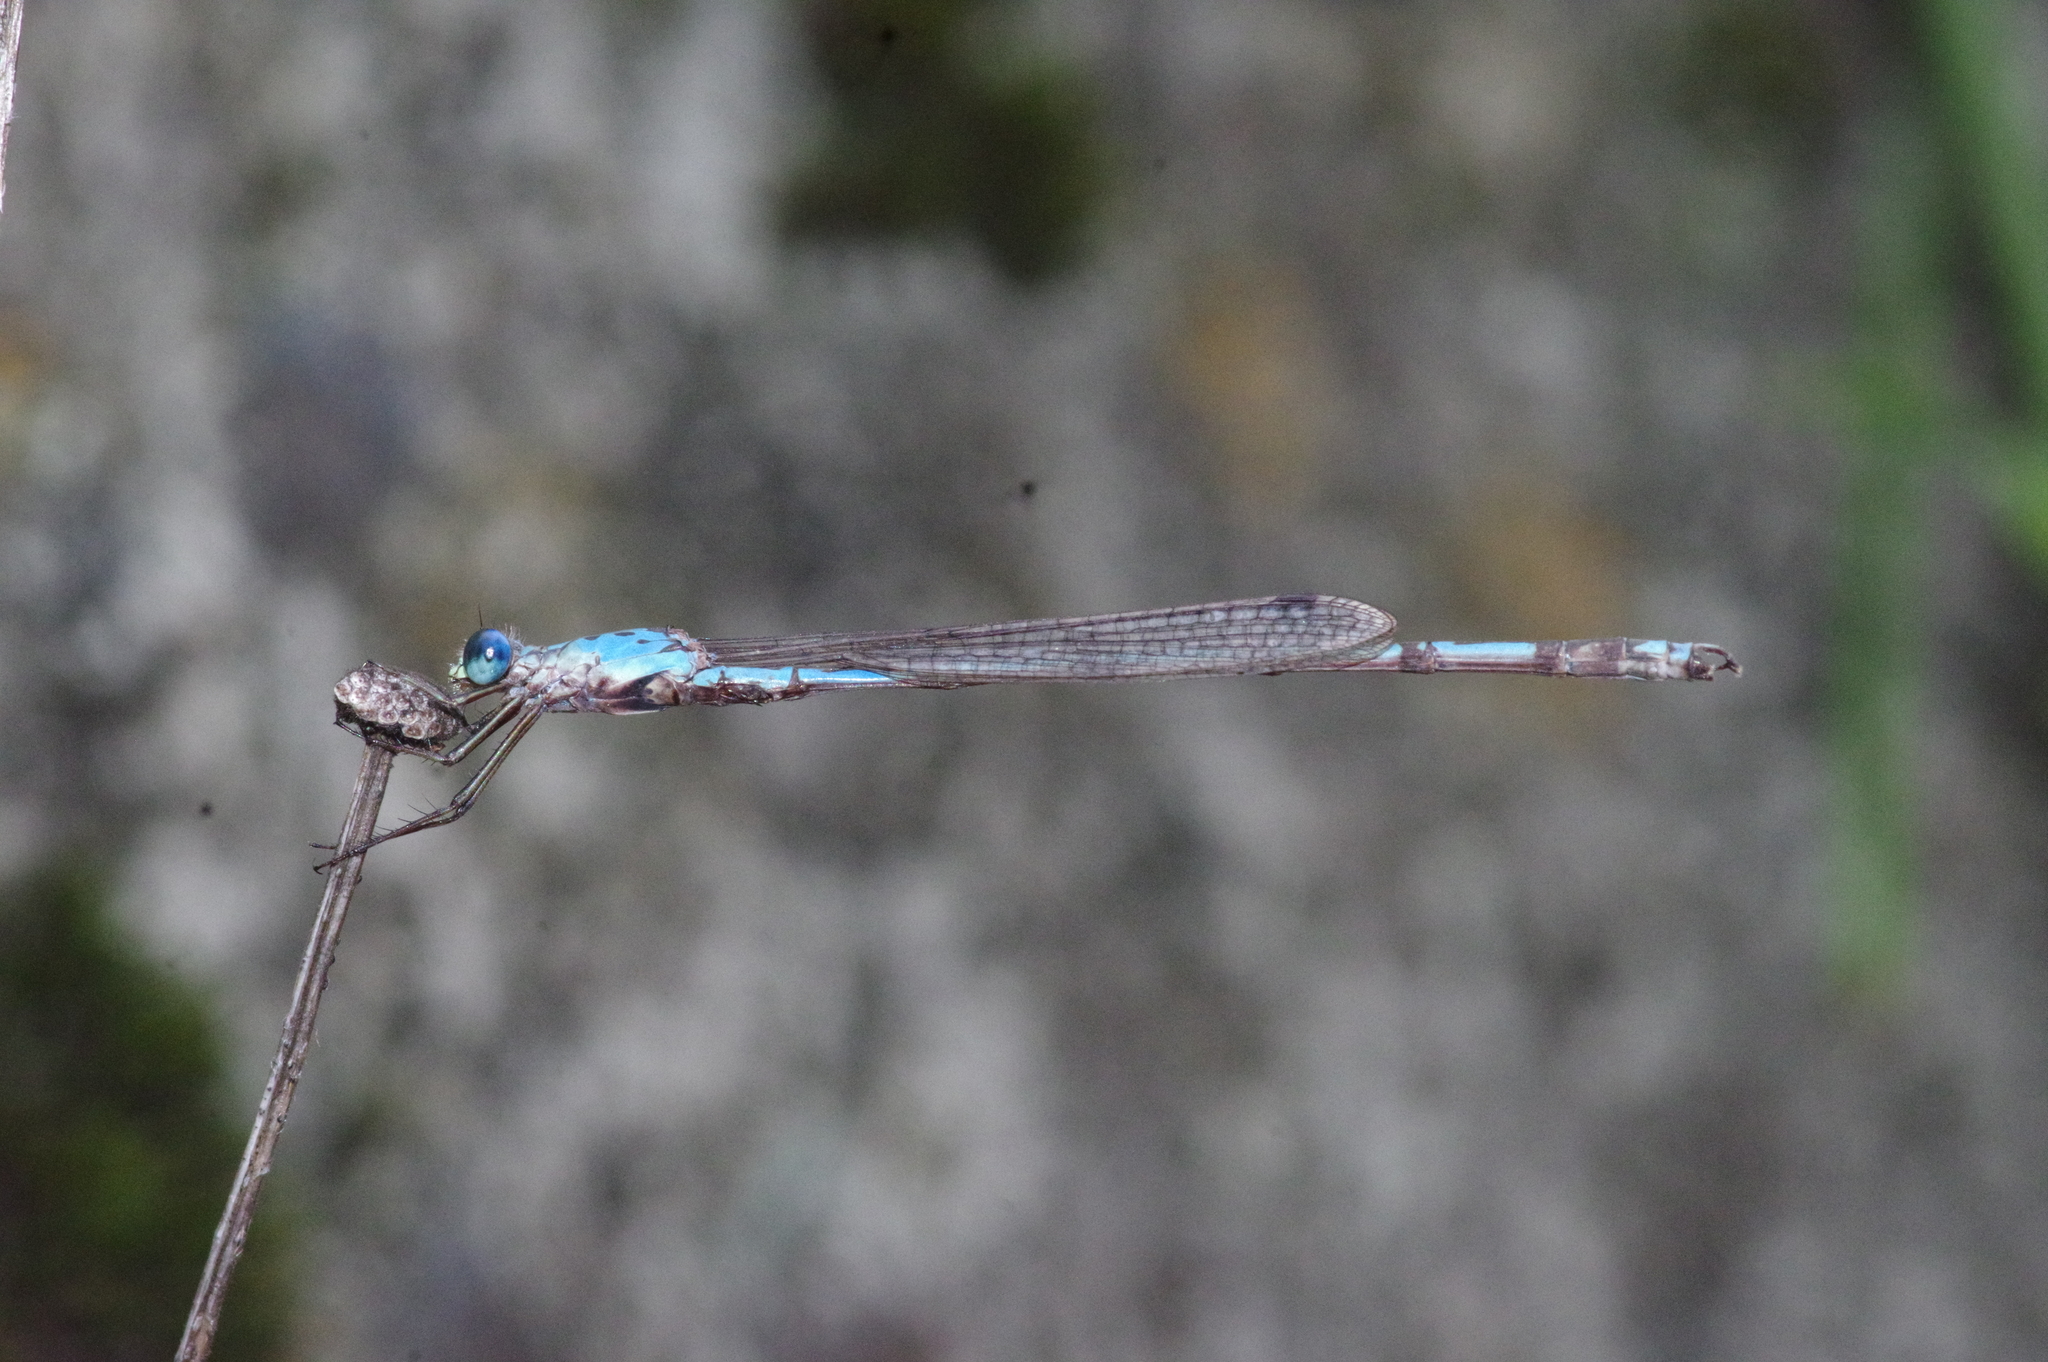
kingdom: Animalia
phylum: Arthropoda
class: Insecta
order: Odonata
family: Lestidae
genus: Indolestes
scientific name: Indolestes peregrinus
